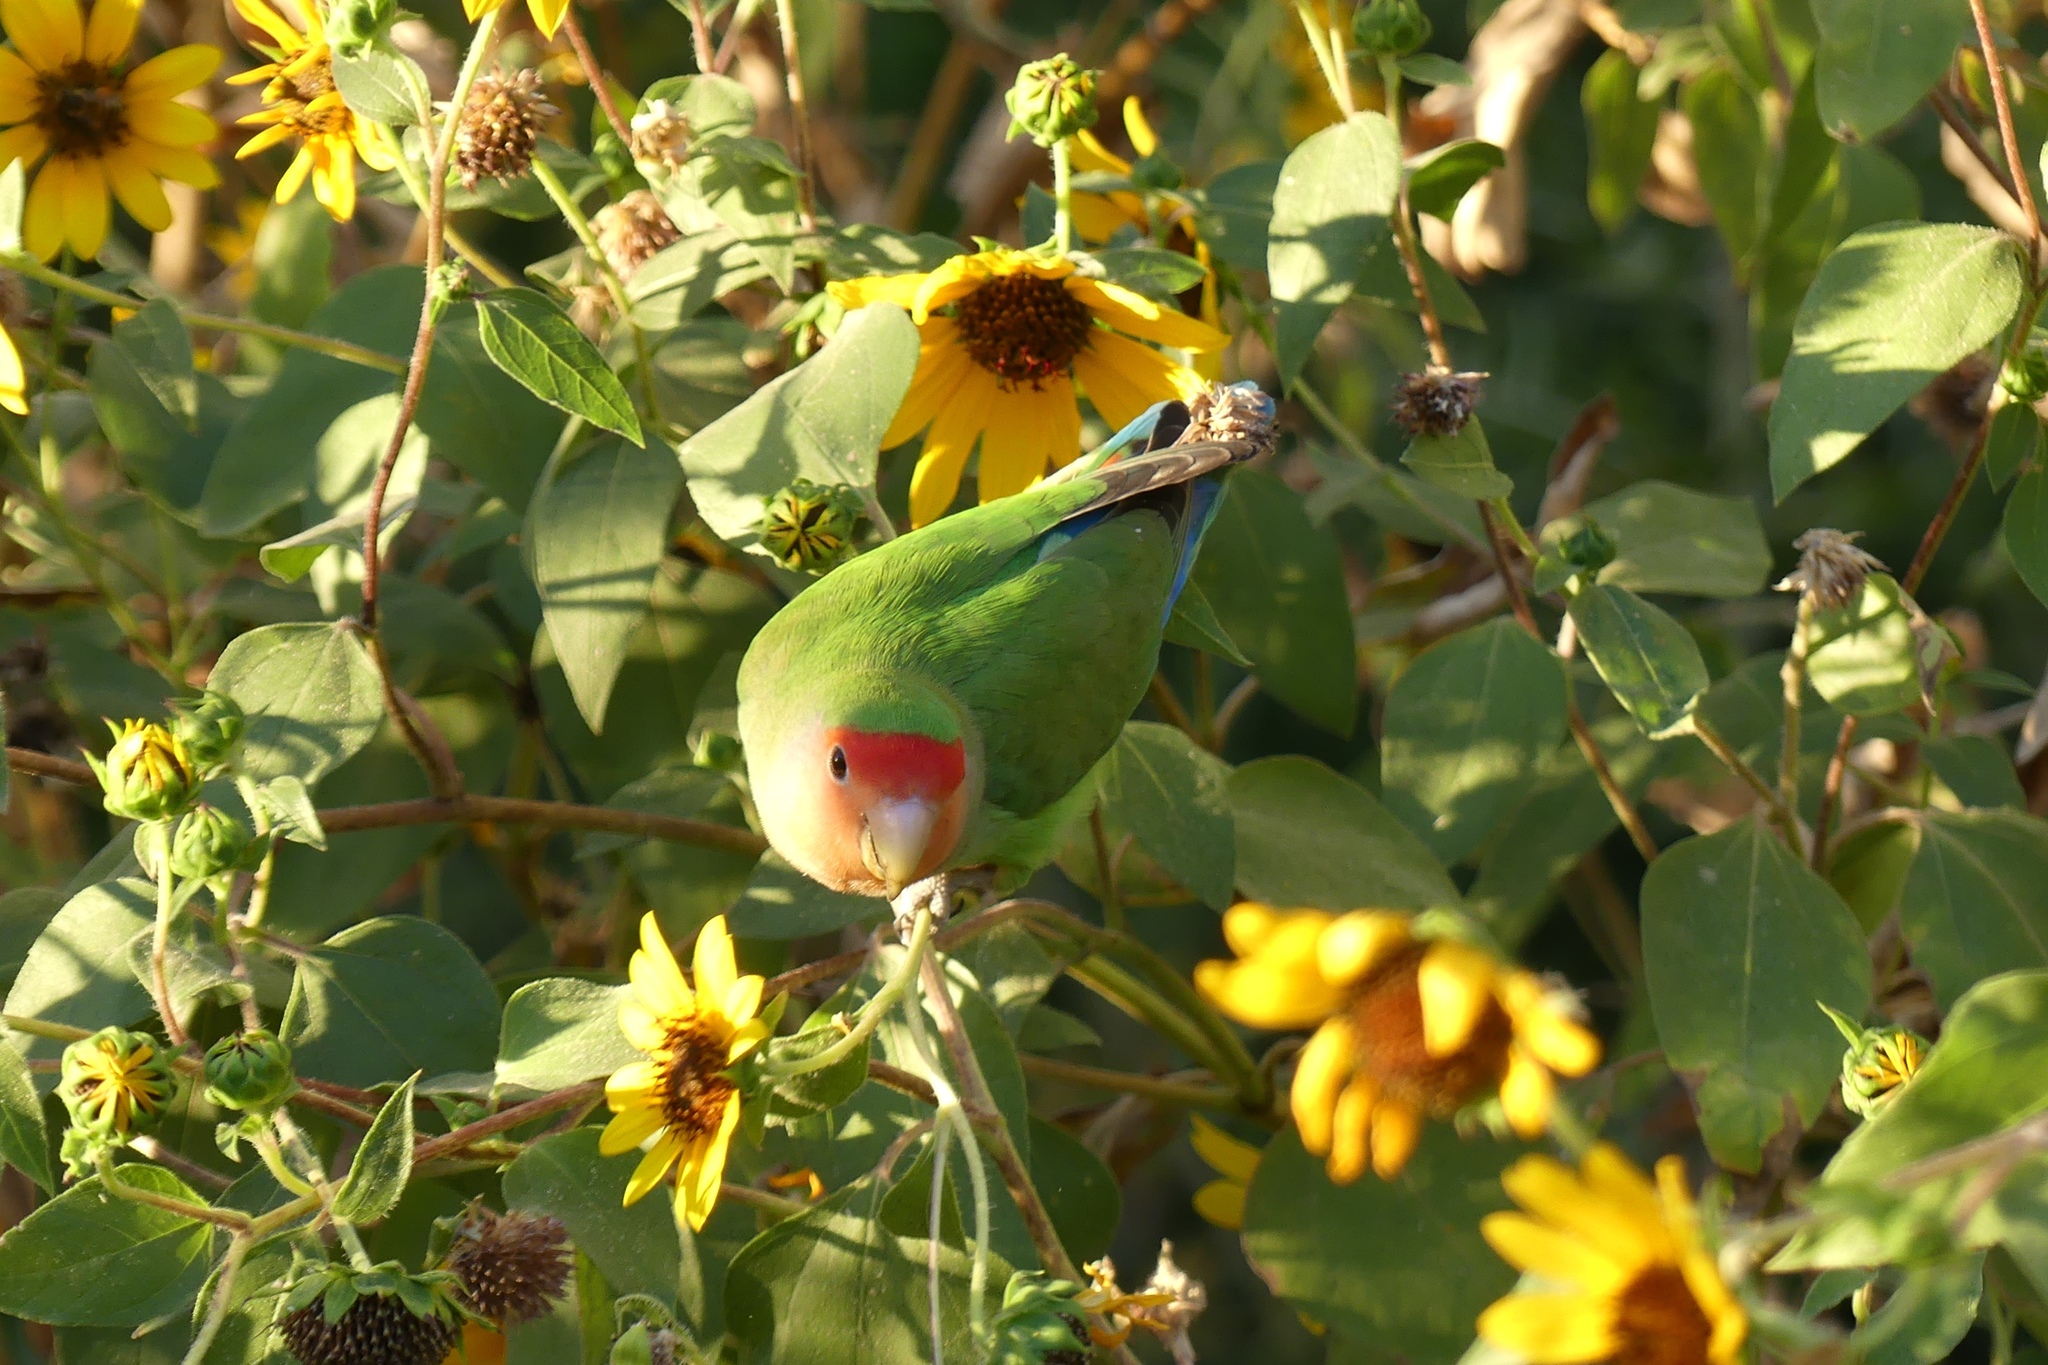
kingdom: Animalia
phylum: Chordata
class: Aves
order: Psittaciformes
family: Psittacidae
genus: Agapornis
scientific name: Agapornis roseicollis
